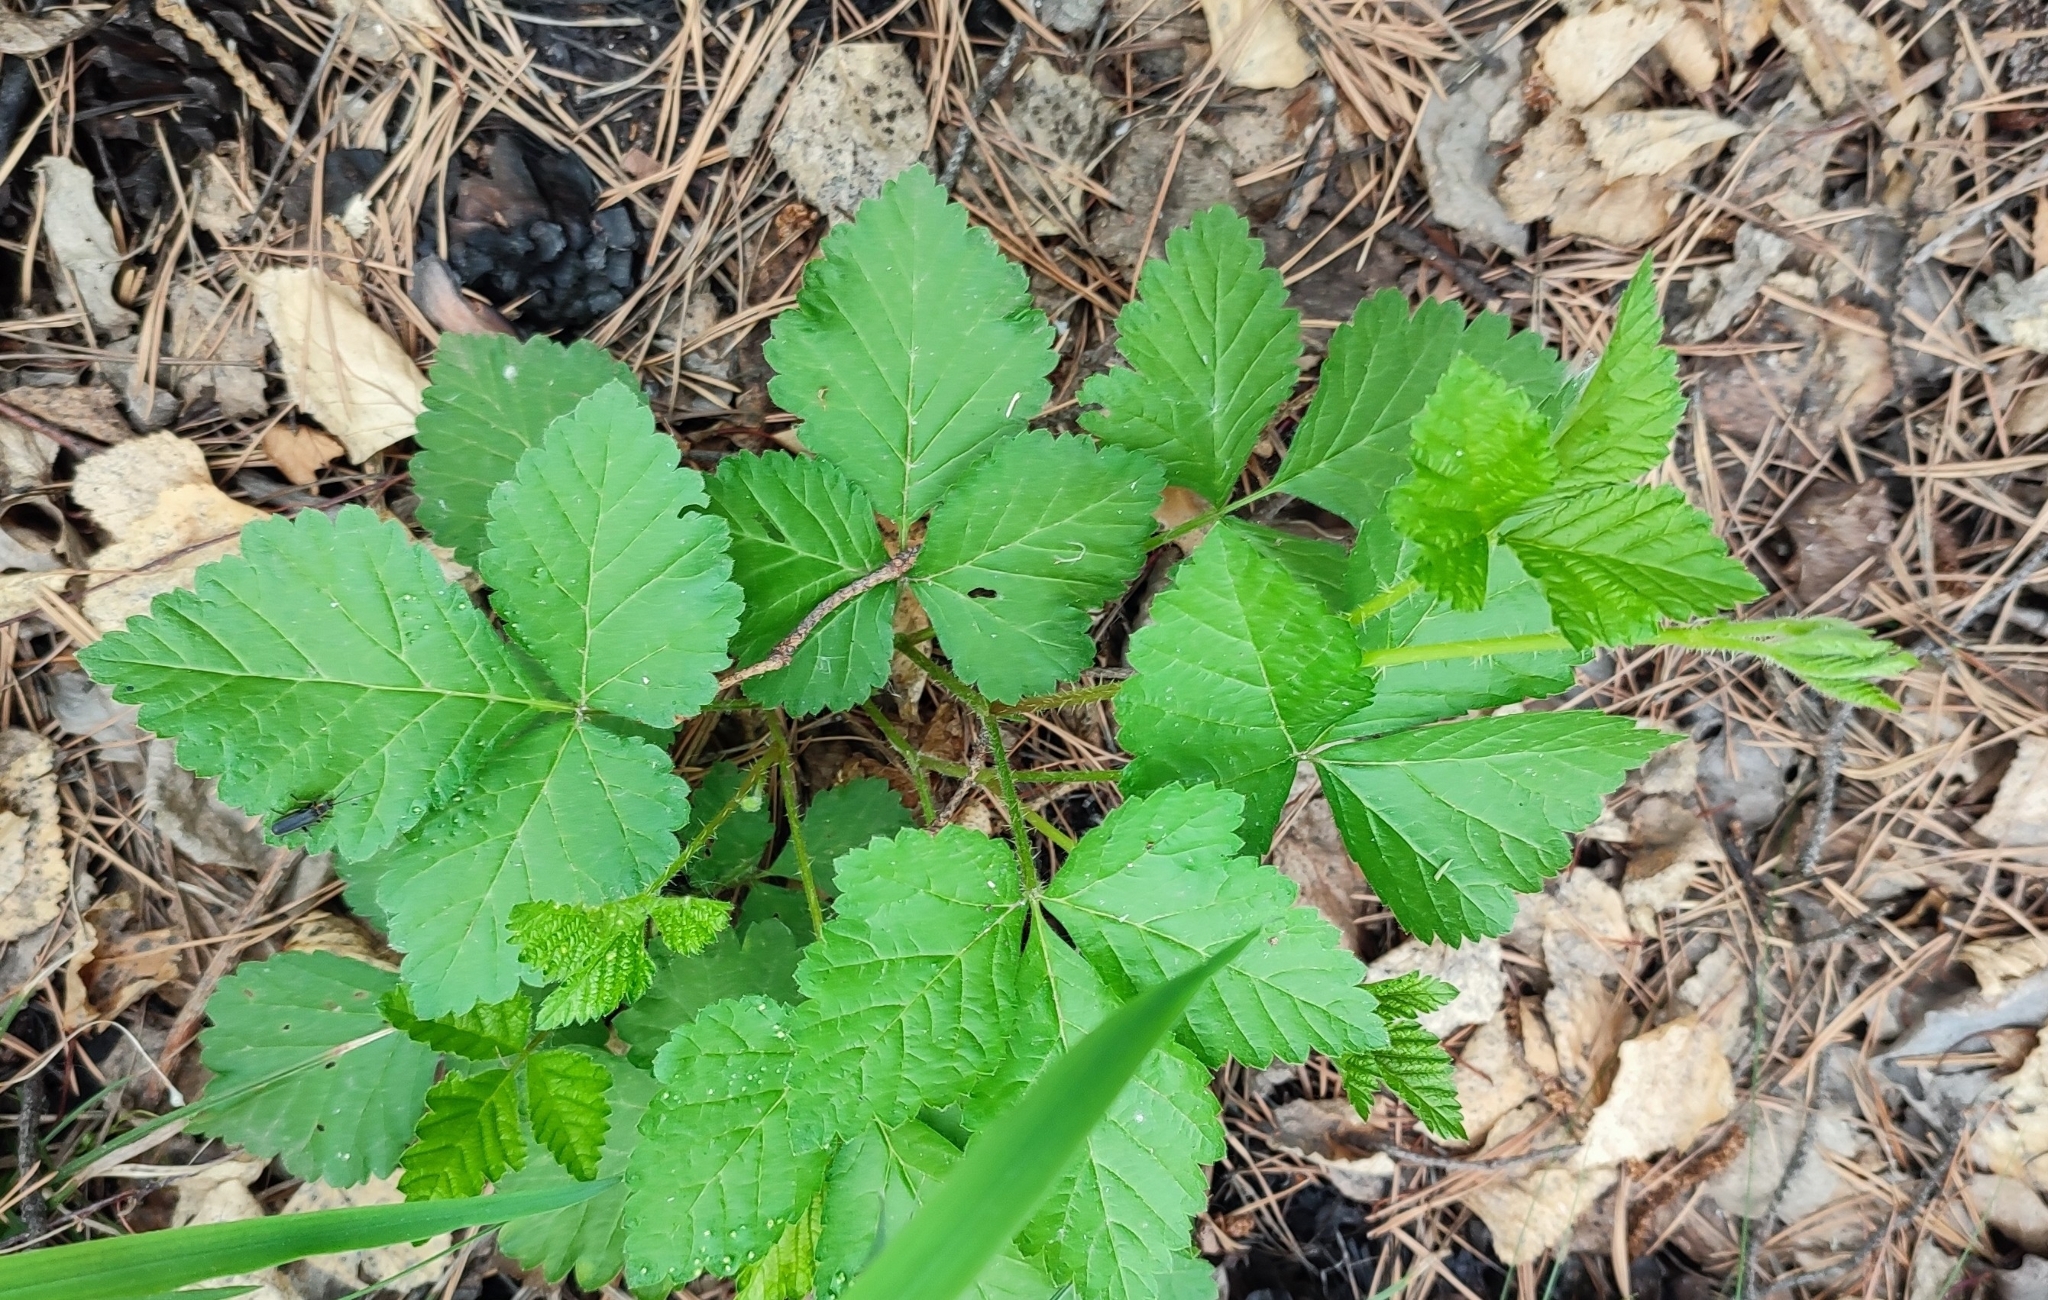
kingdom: Plantae
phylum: Tracheophyta
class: Magnoliopsida
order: Rosales
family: Rosaceae
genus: Rubus
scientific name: Rubus saxatilis
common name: Stone bramble
